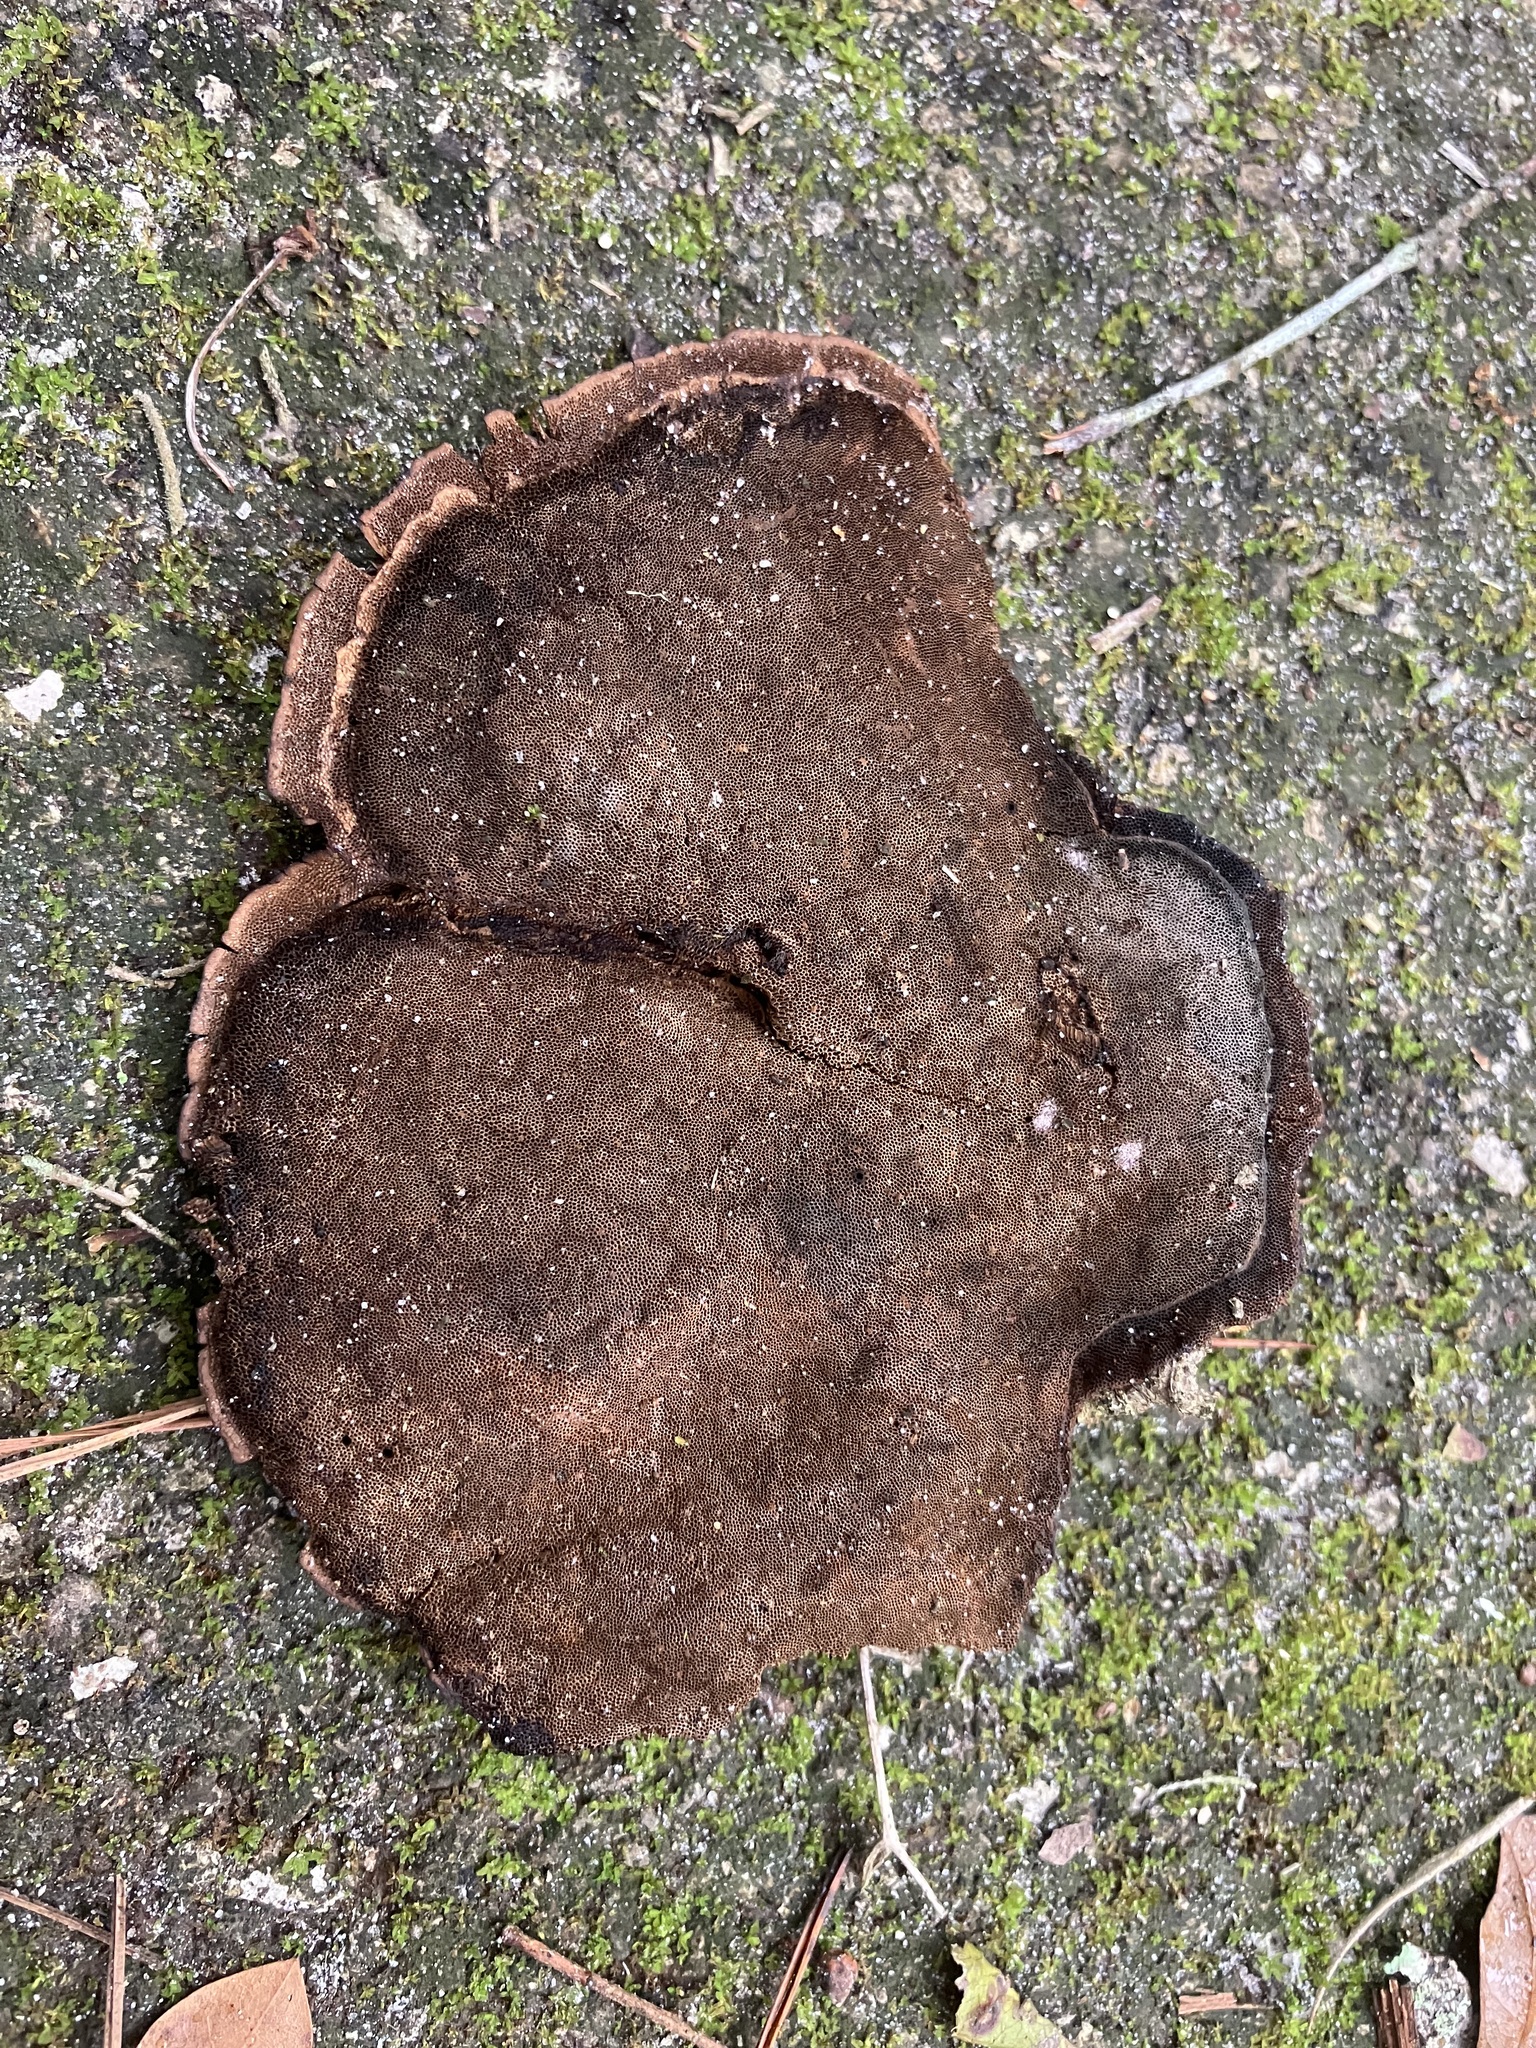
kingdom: Fungi
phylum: Basidiomycota
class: Agaricomycetes
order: Polyporales
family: Cerrenaceae
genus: Cerrena
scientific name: Cerrena hydnoides
